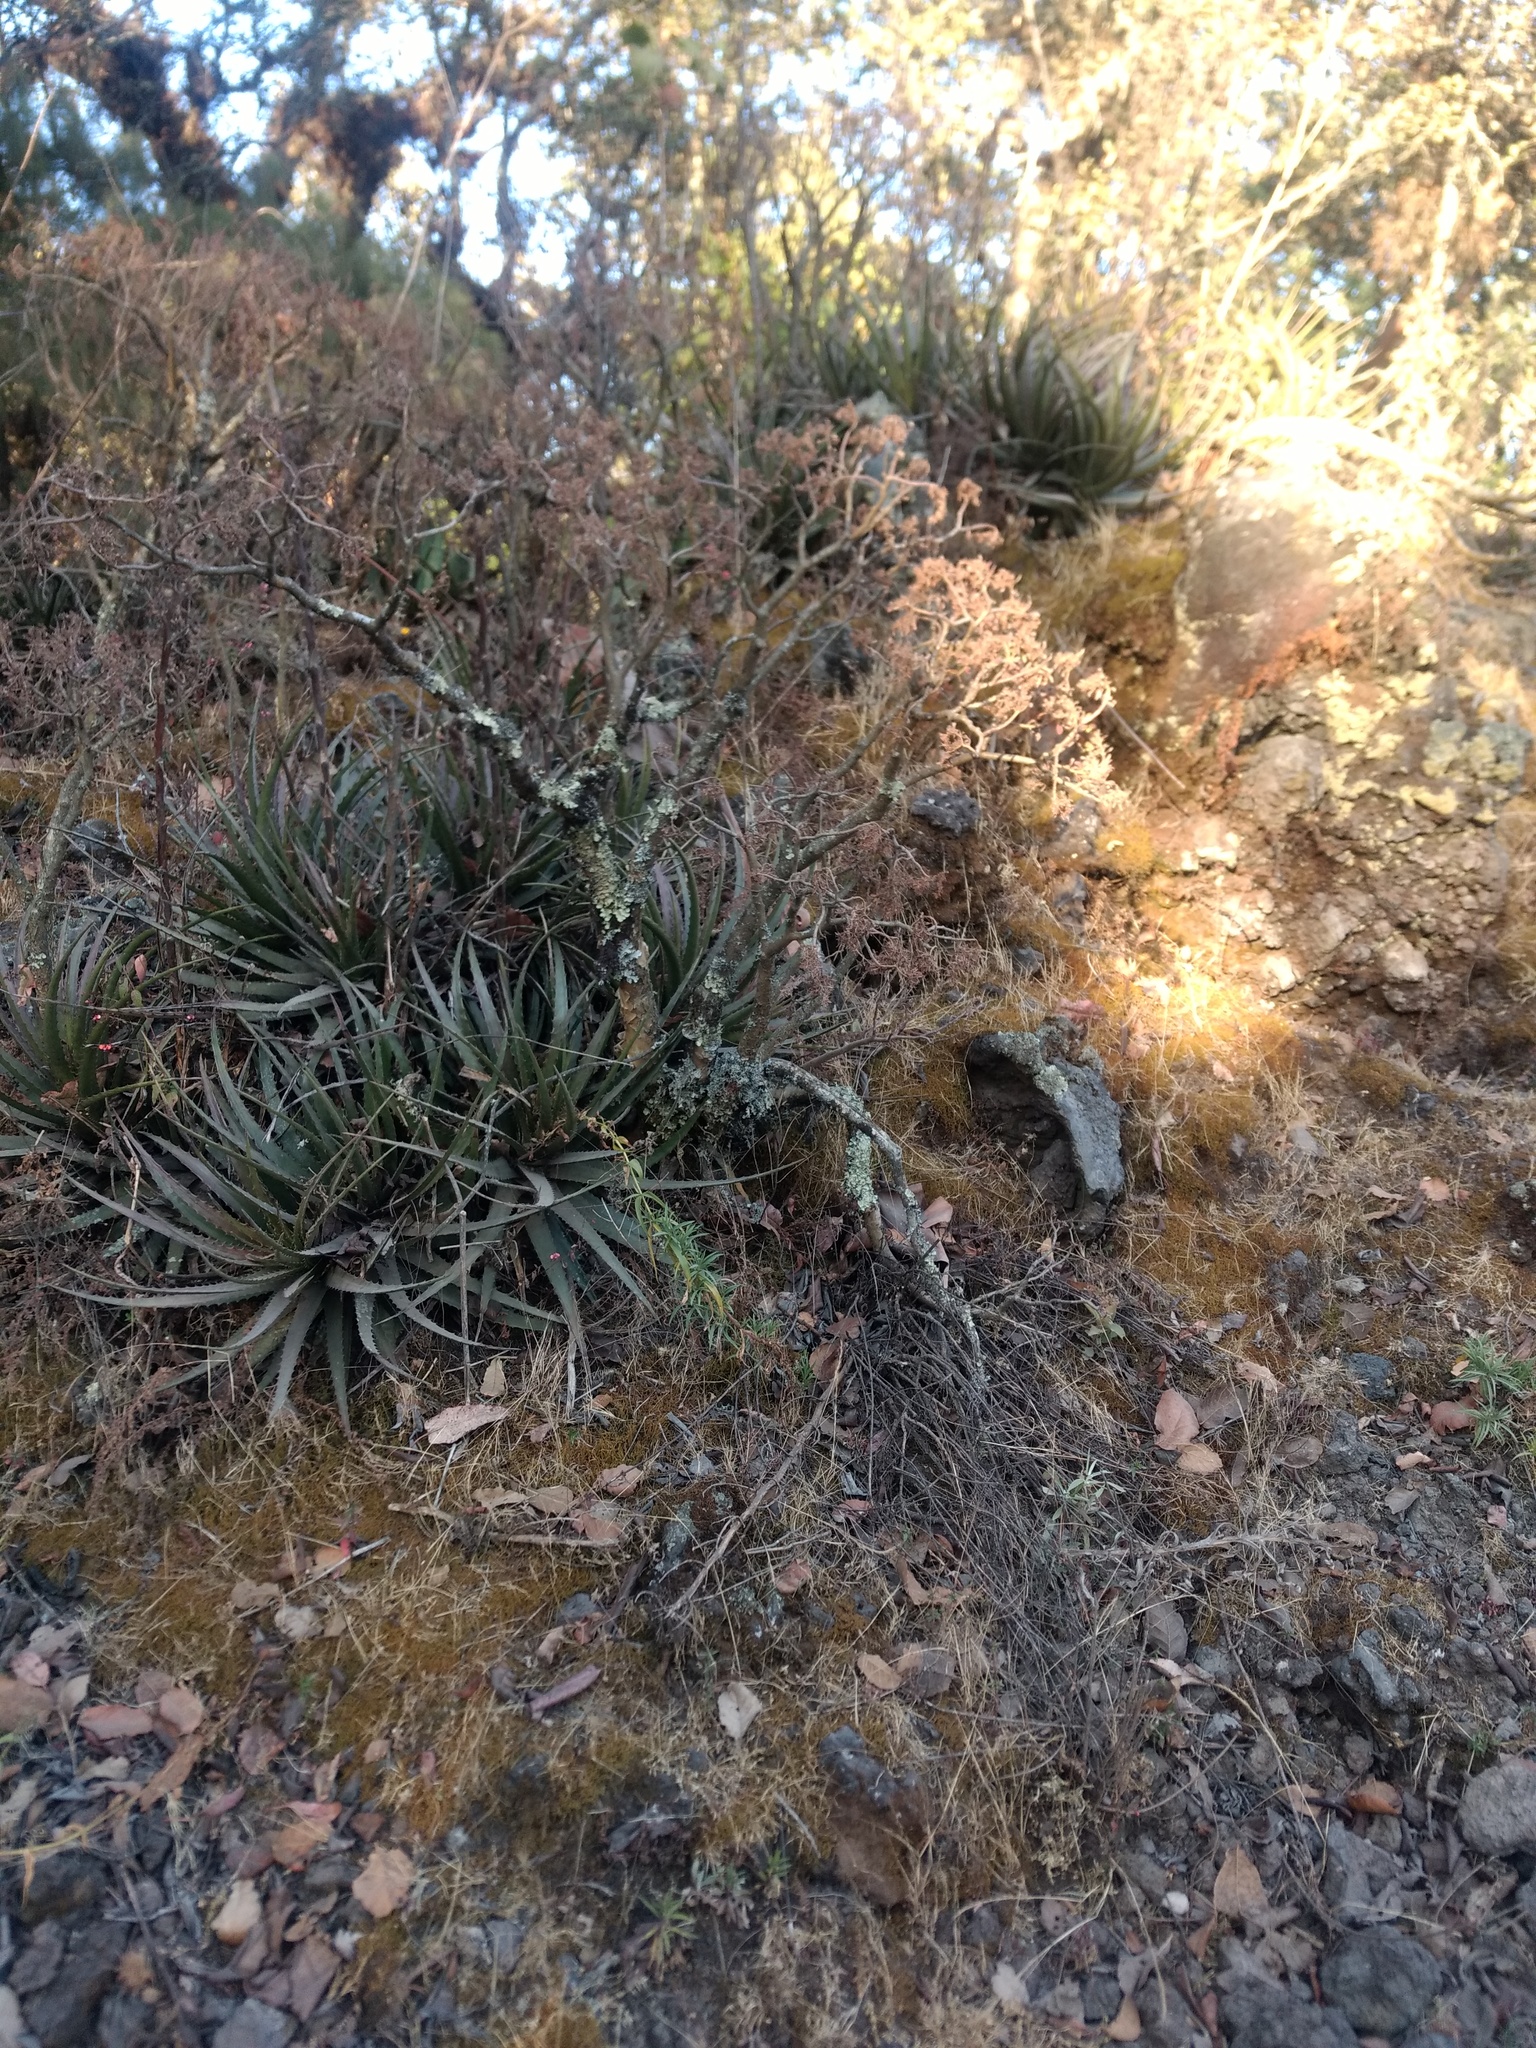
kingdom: Plantae
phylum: Tracheophyta
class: Liliopsida
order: Poales
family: Bromeliaceae
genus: Hechtia
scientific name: Hechtia chichinautzensis
